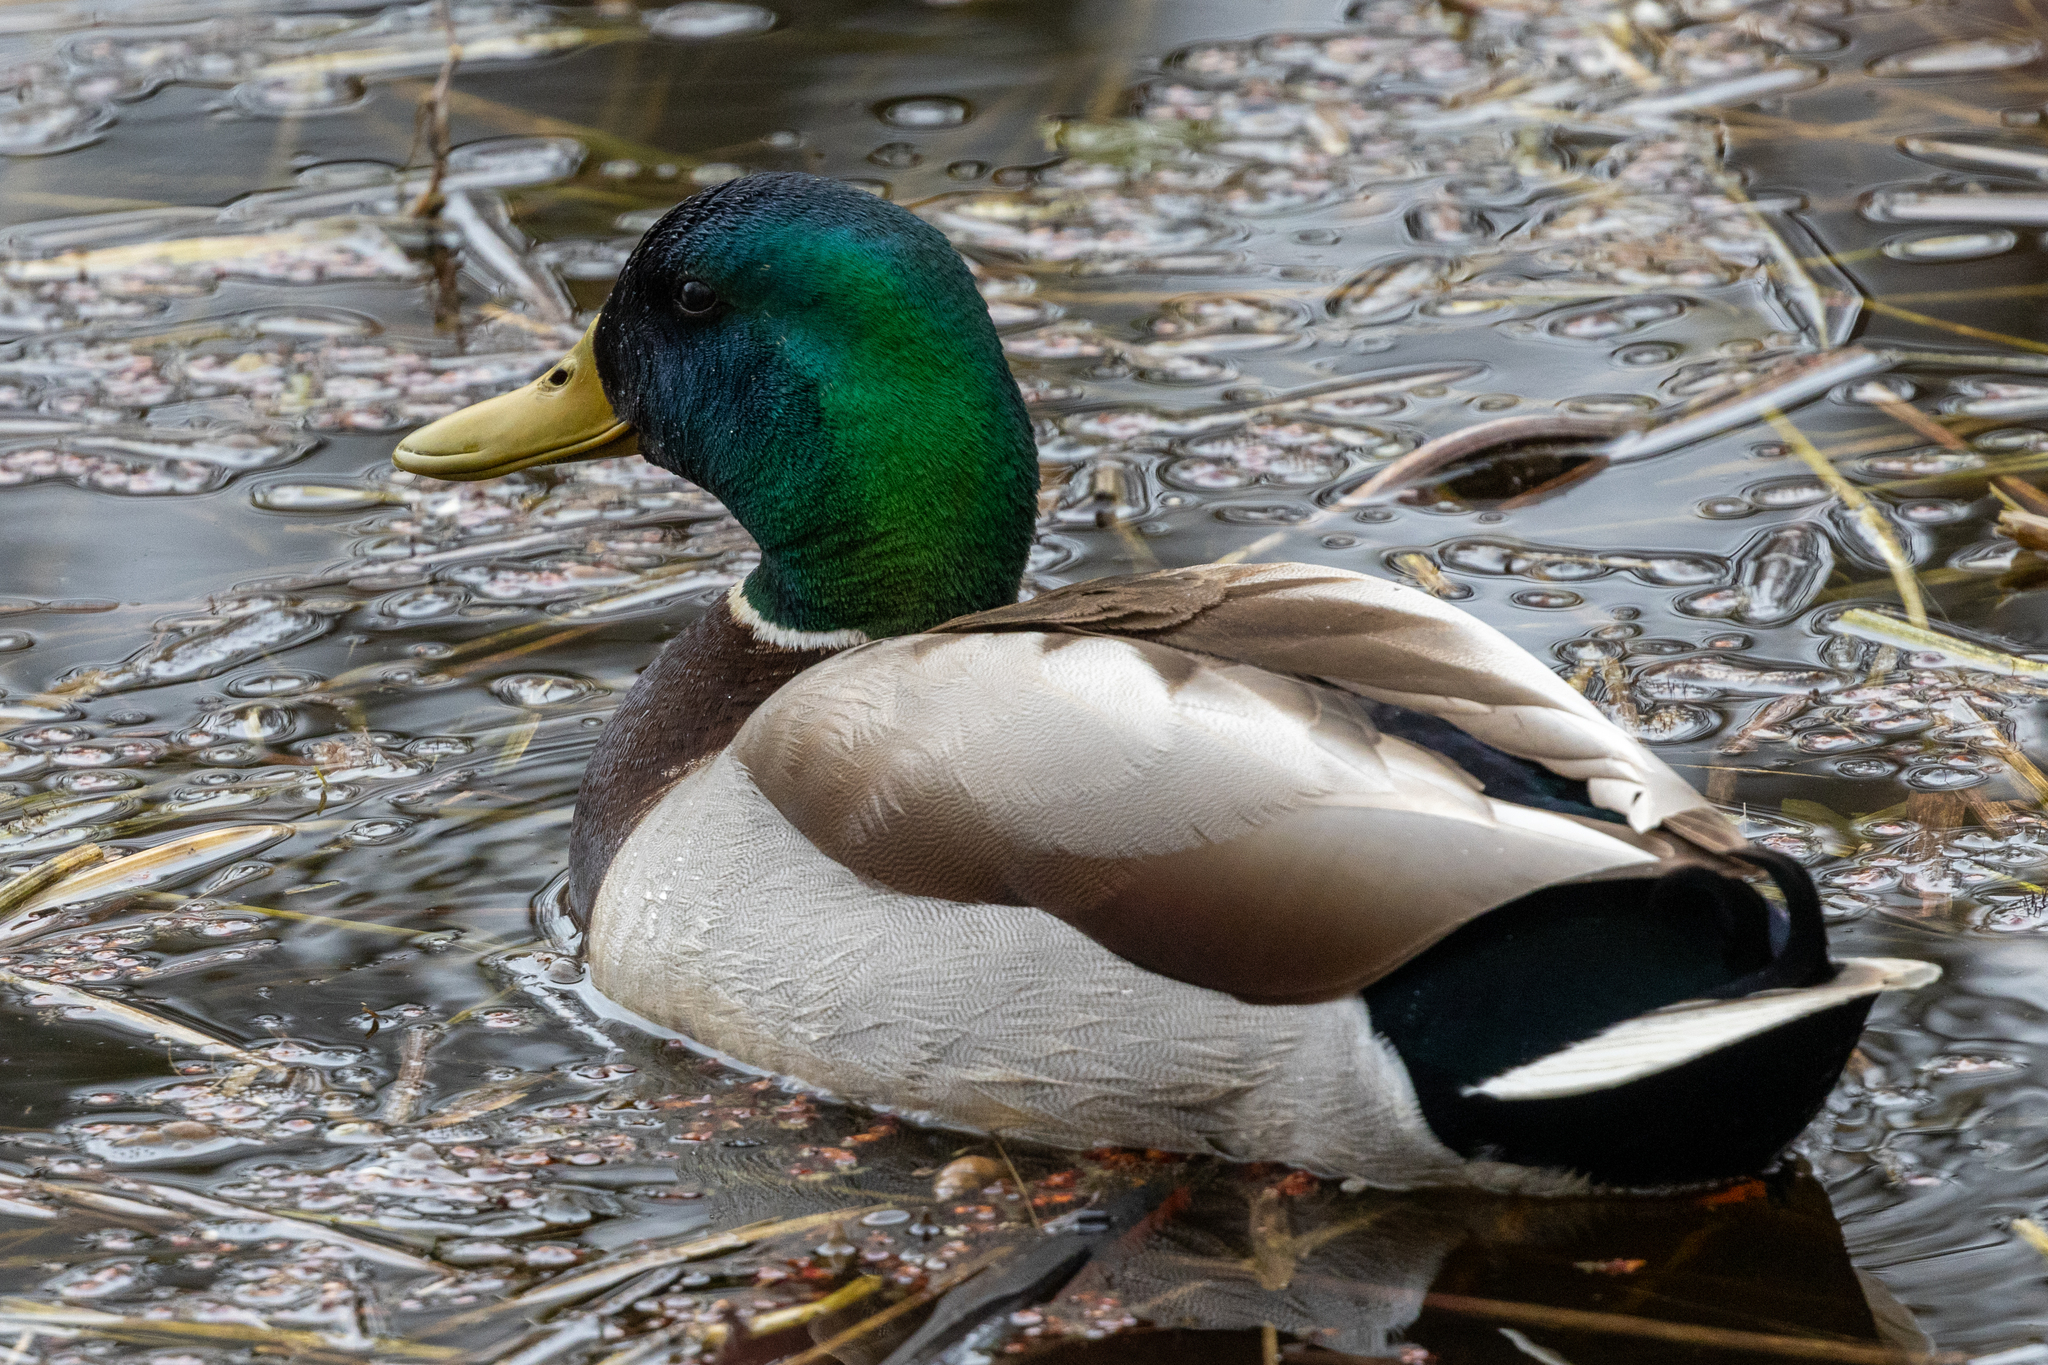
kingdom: Animalia
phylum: Chordata
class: Aves
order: Anseriformes
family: Anatidae
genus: Anas
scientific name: Anas platyrhynchos
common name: Mallard
